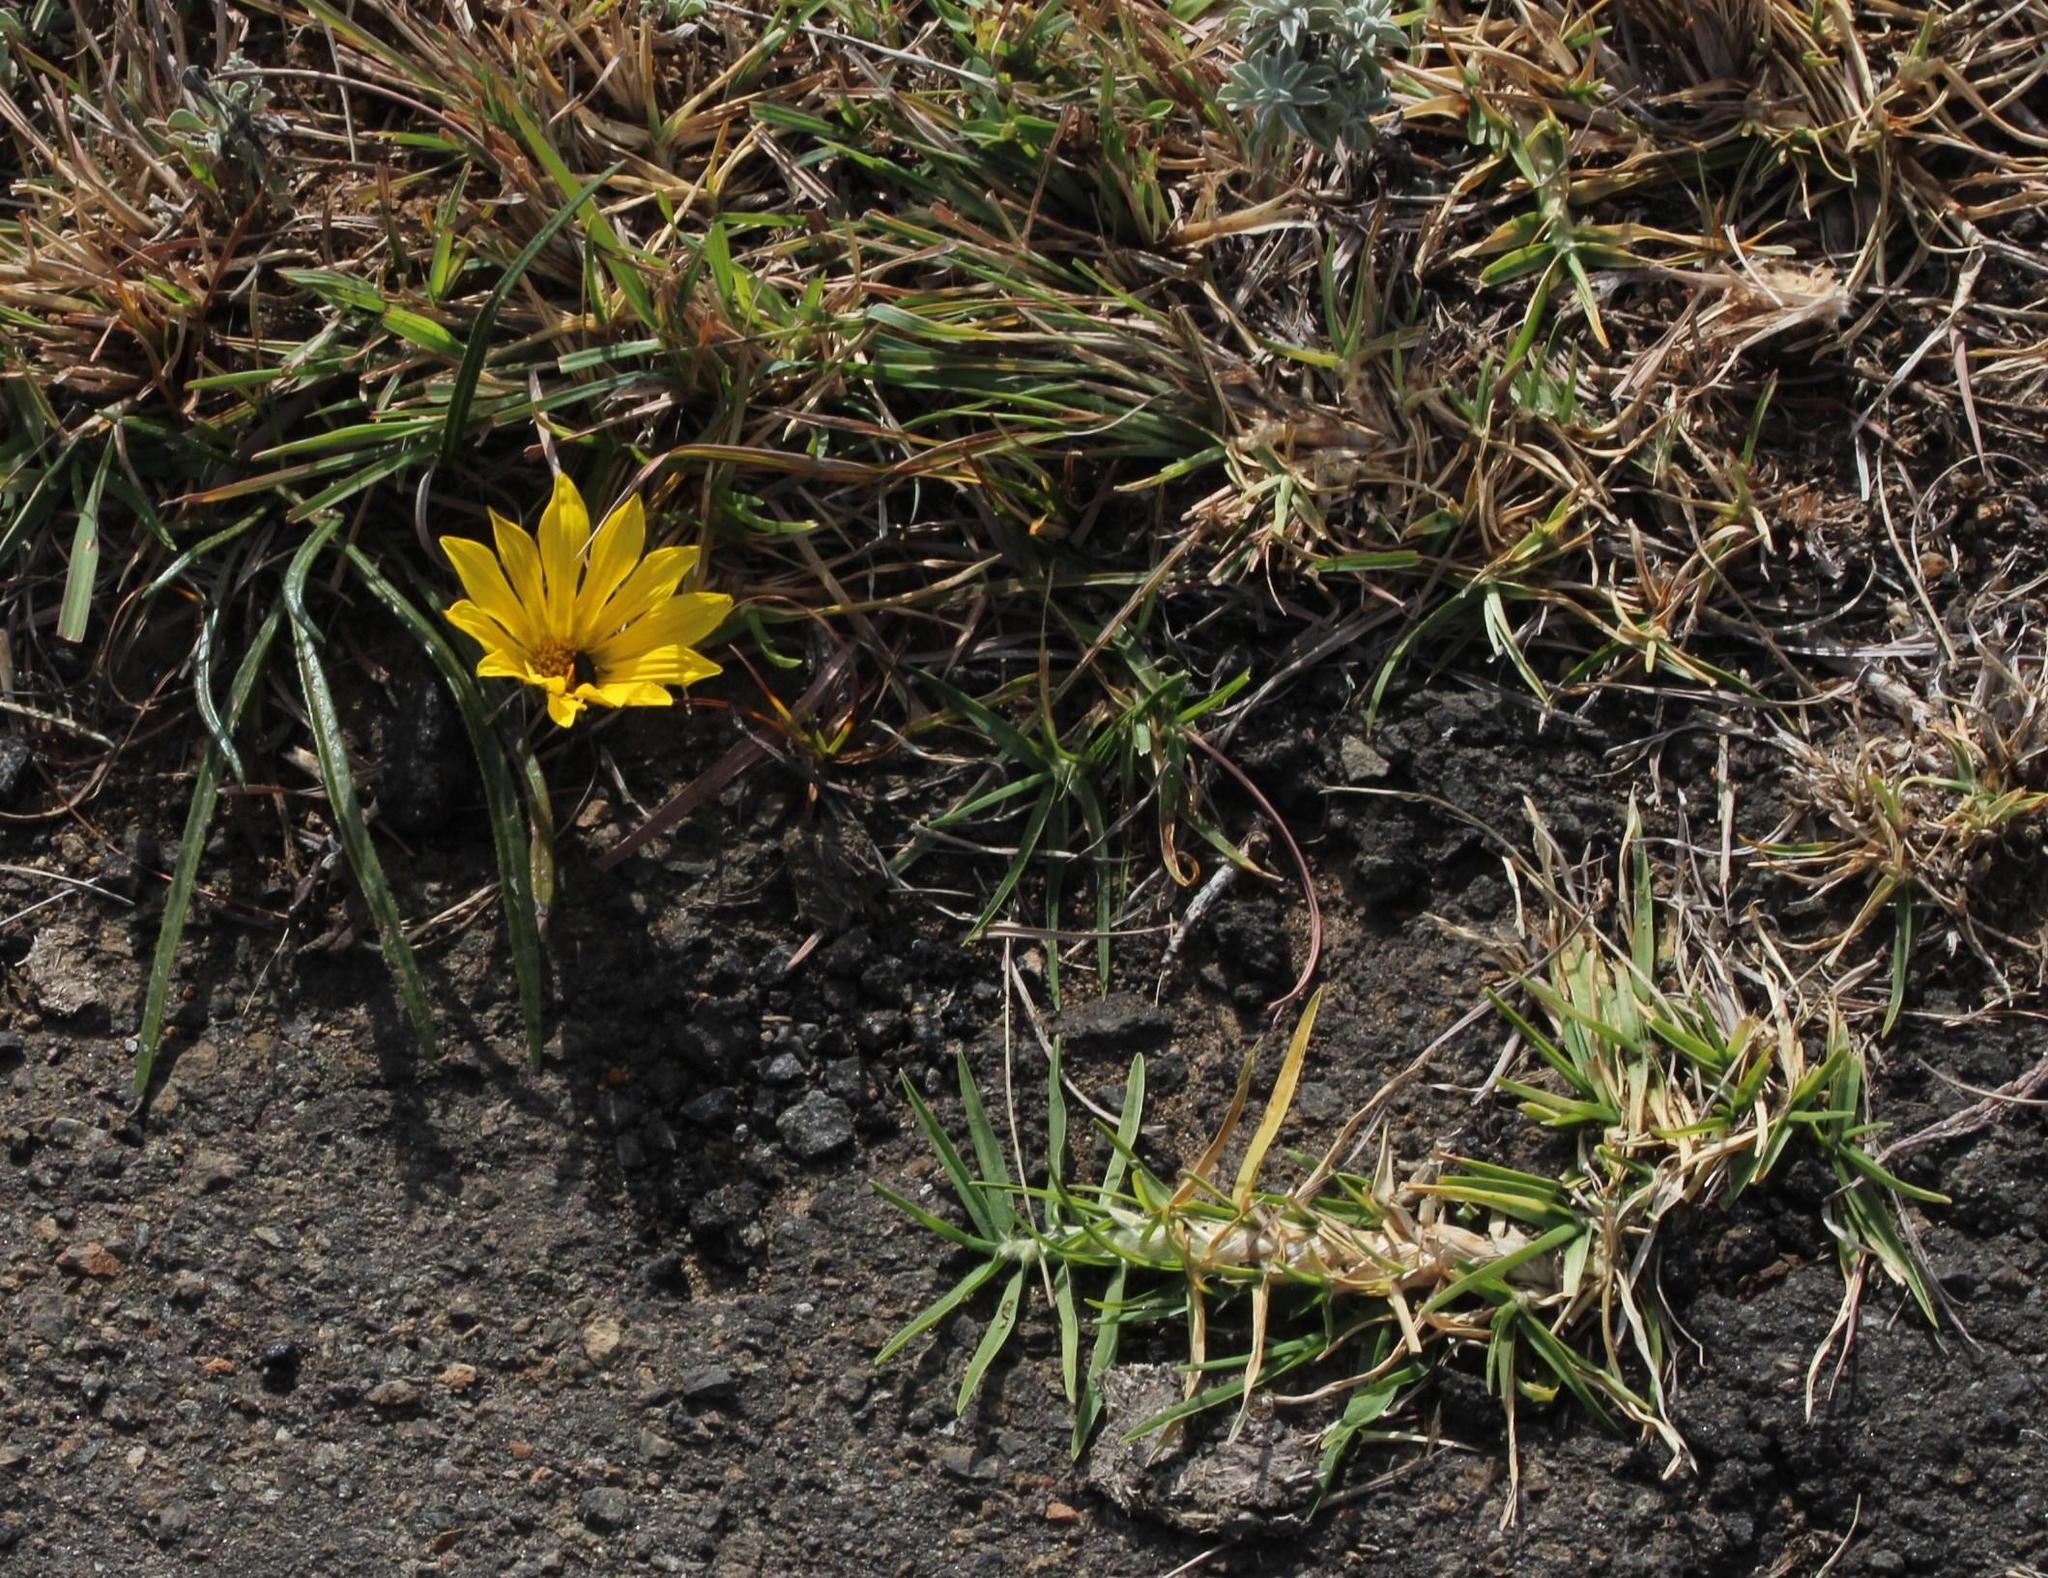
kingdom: Plantae
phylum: Tracheophyta
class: Liliopsida
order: Poales
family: Poaceae
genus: Cenchrus
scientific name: Cenchrus clandestinus
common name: Kikuyugrass
